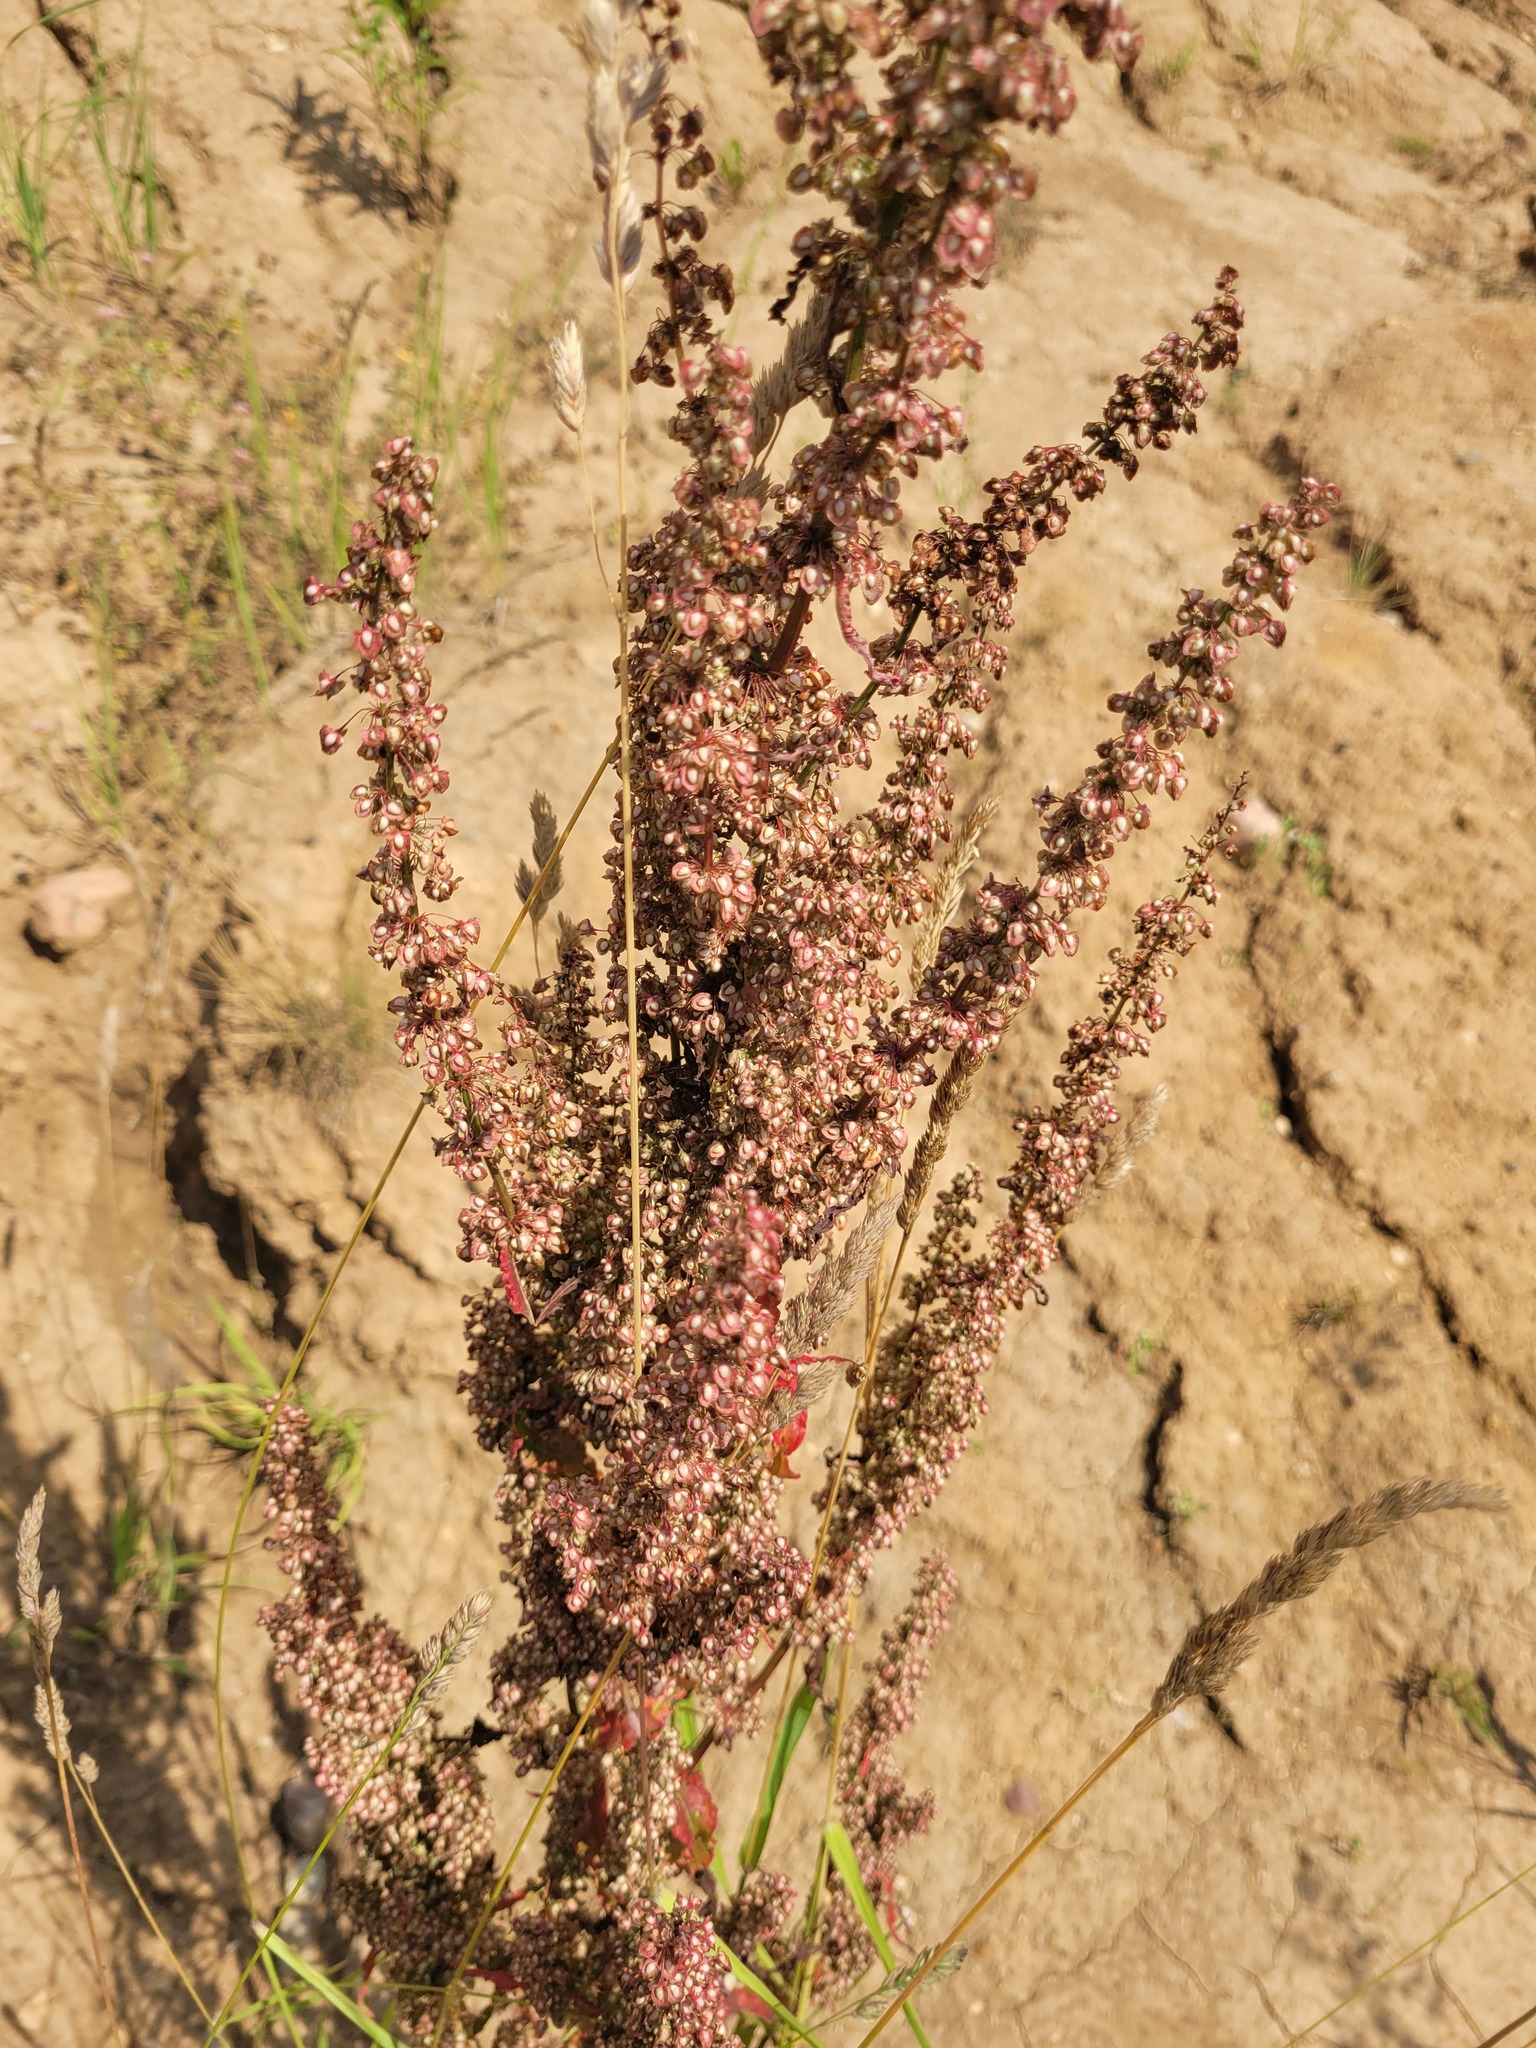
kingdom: Plantae
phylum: Tracheophyta
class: Magnoliopsida
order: Caryophyllales
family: Polygonaceae
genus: Rumex
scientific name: Rumex crispus
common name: Curled dock
